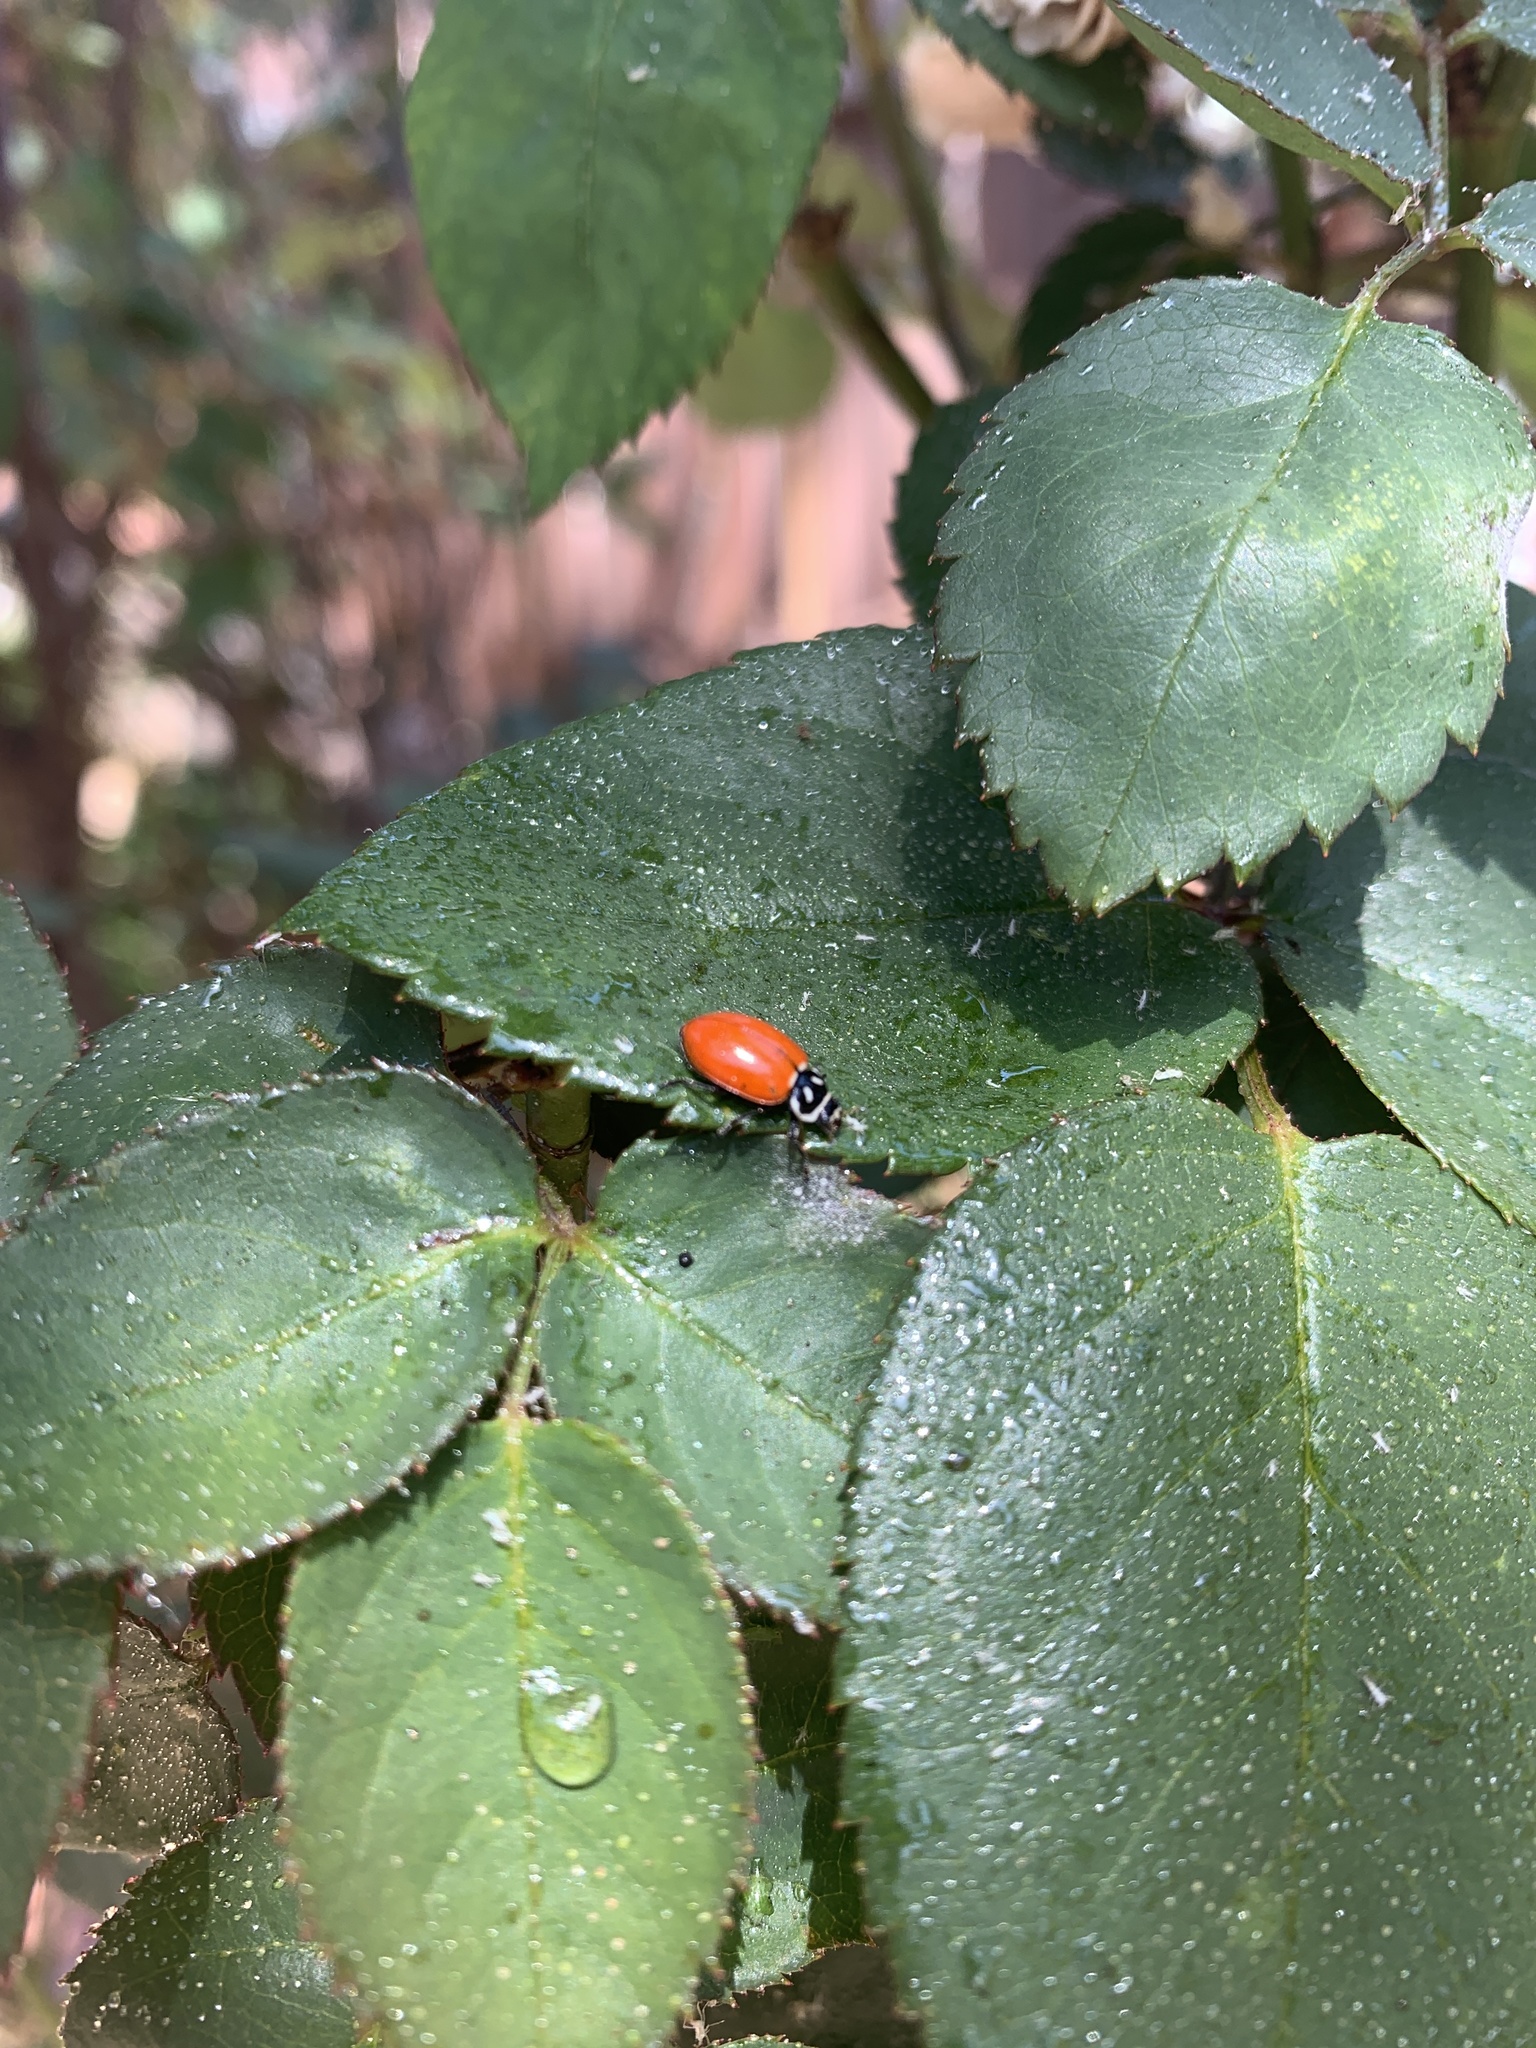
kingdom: Animalia
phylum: Arthropoda
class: Insecta
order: Coleoptera
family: Coccinellidae
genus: Hippodamia
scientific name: Hippodamia convergens
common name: Convergent lady beetle
